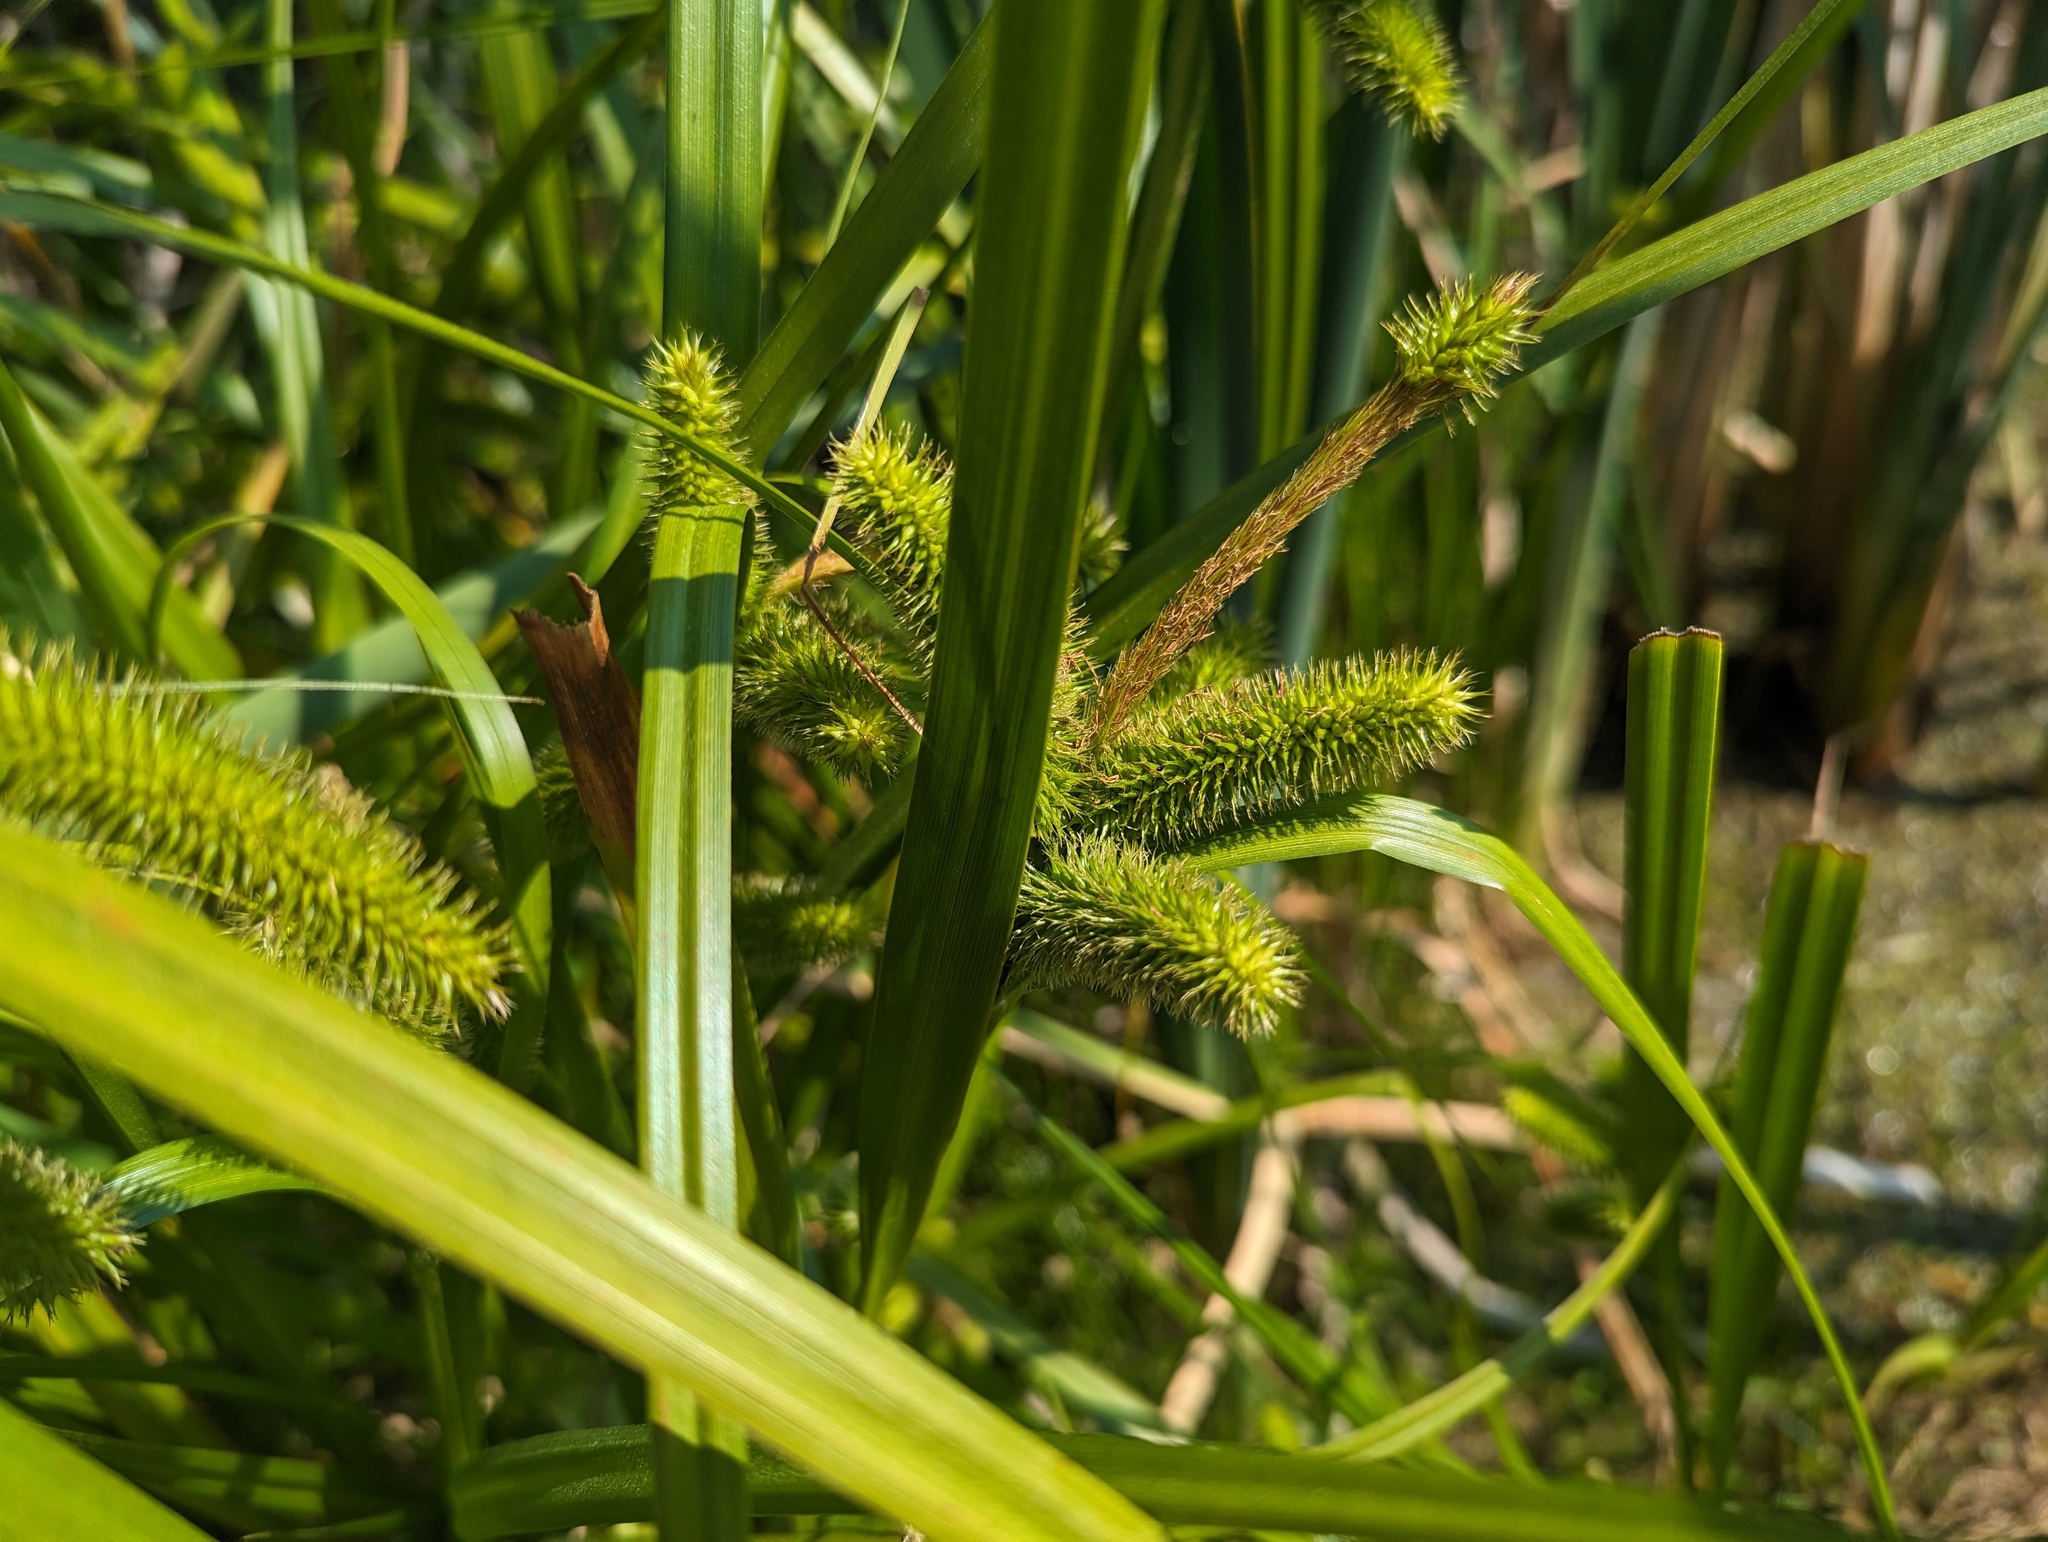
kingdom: Plantae
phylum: Tracheophyta
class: Liliopsida
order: Poales
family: Cyperaceae
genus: Carex
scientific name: Carex comosa
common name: Bristly sedge
